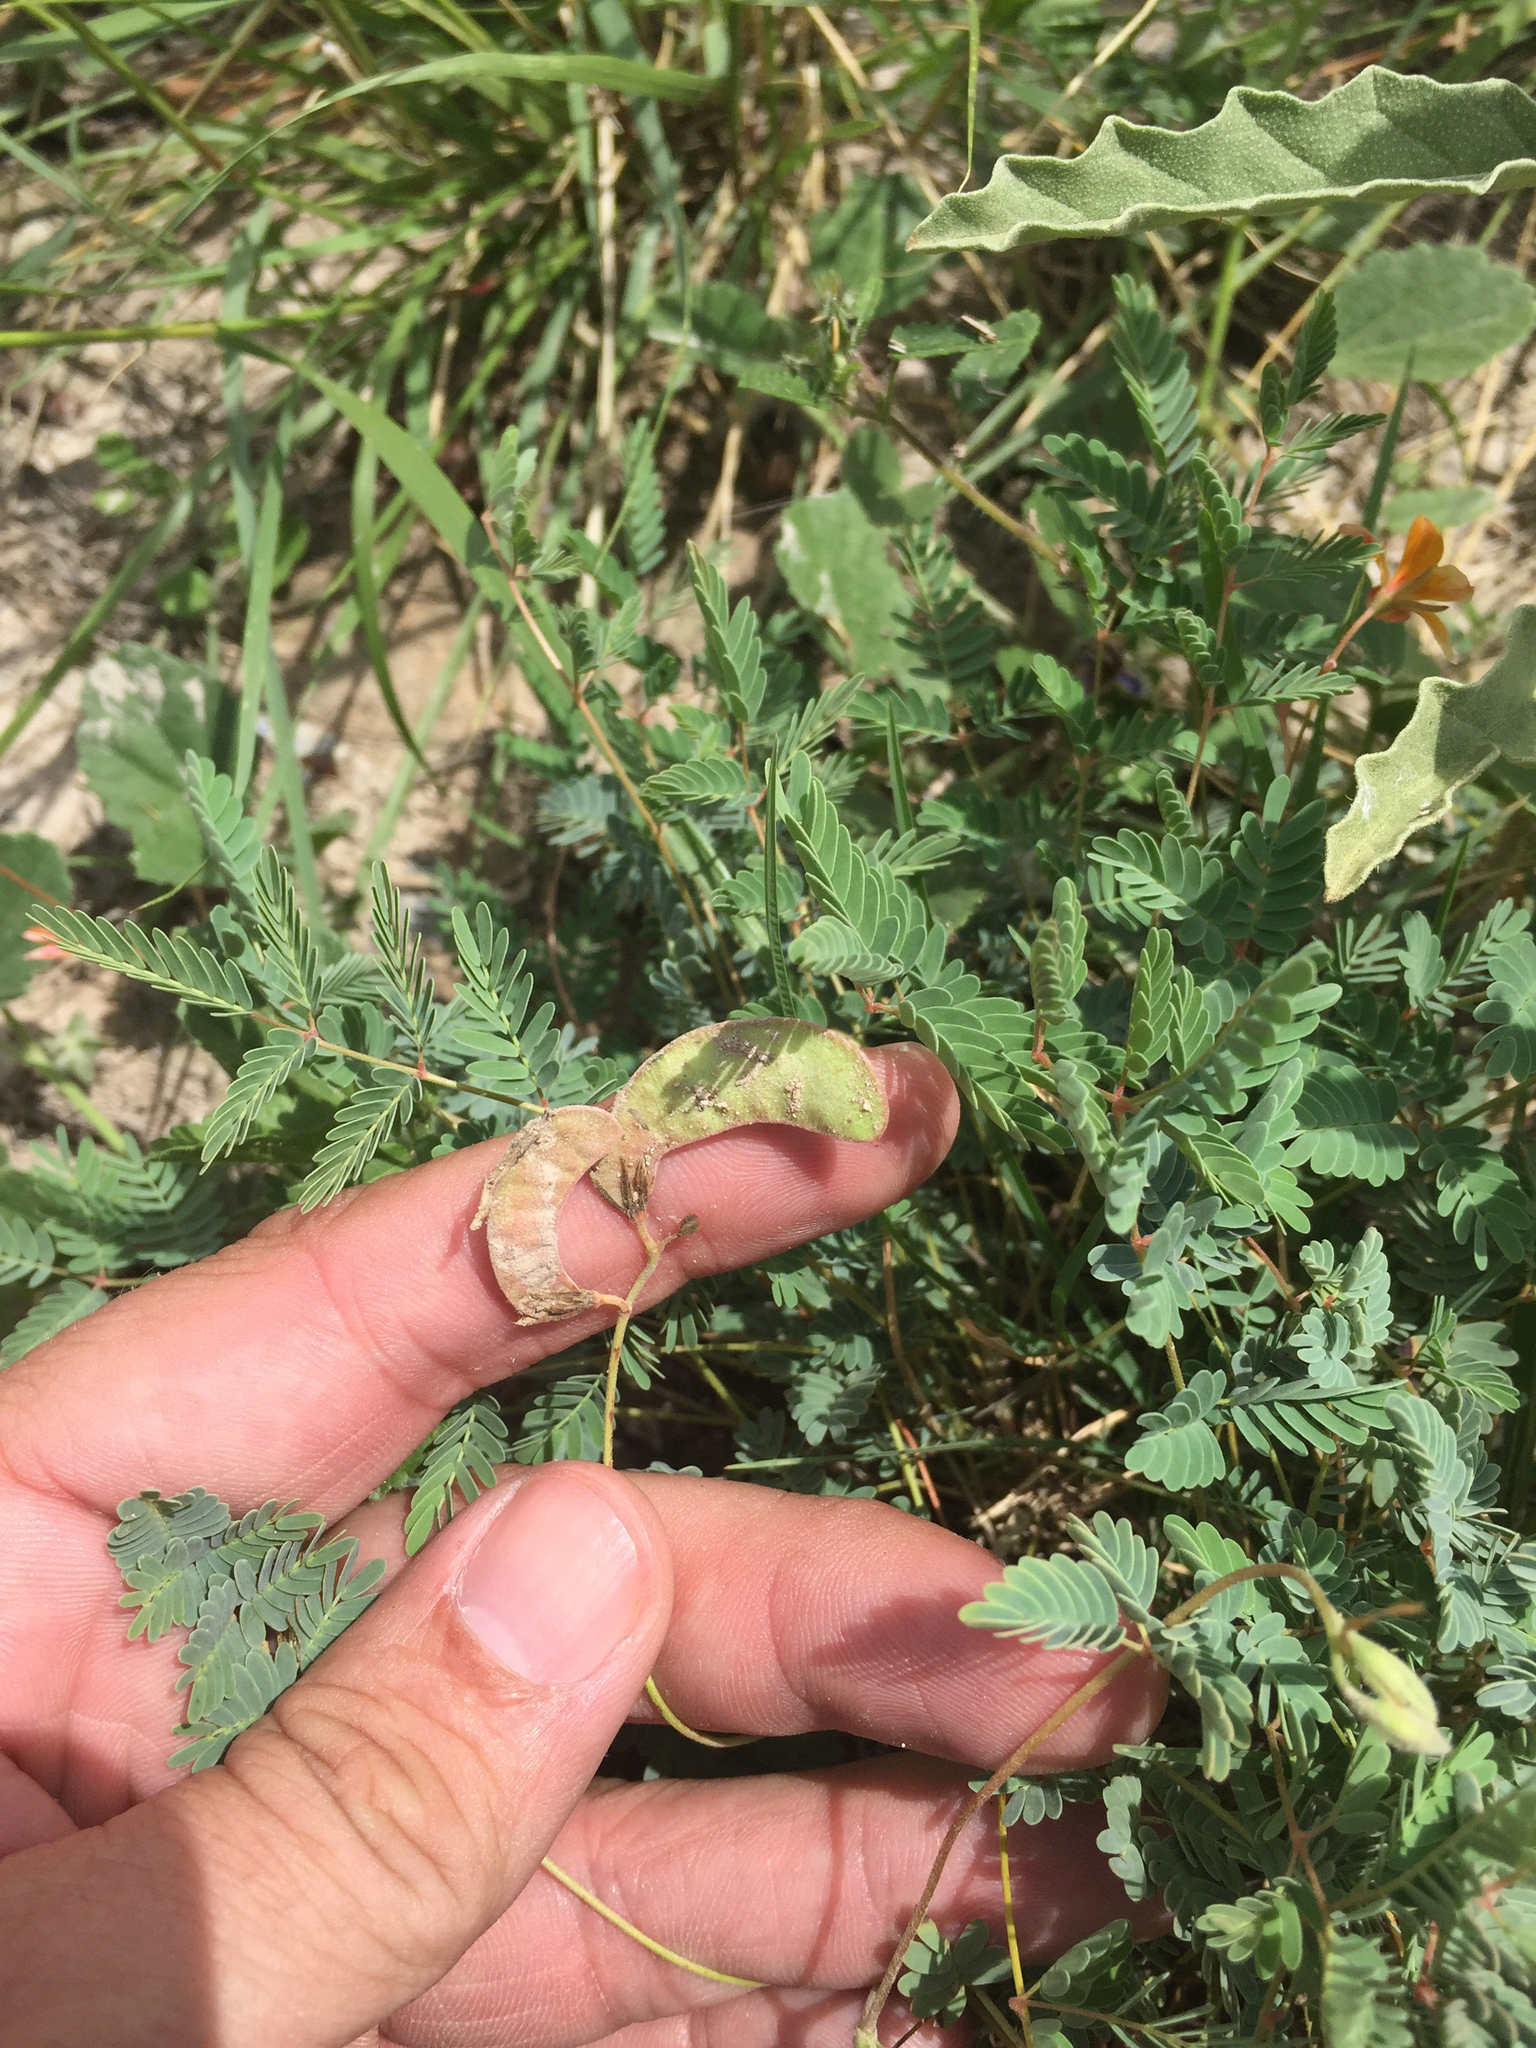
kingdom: Plantae
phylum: Tracheophyta
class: Magnoliopsida
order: Fabales
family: Fabaceae
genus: Hoffmannseggia
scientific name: Hoffmannseggia drepanocarpa
